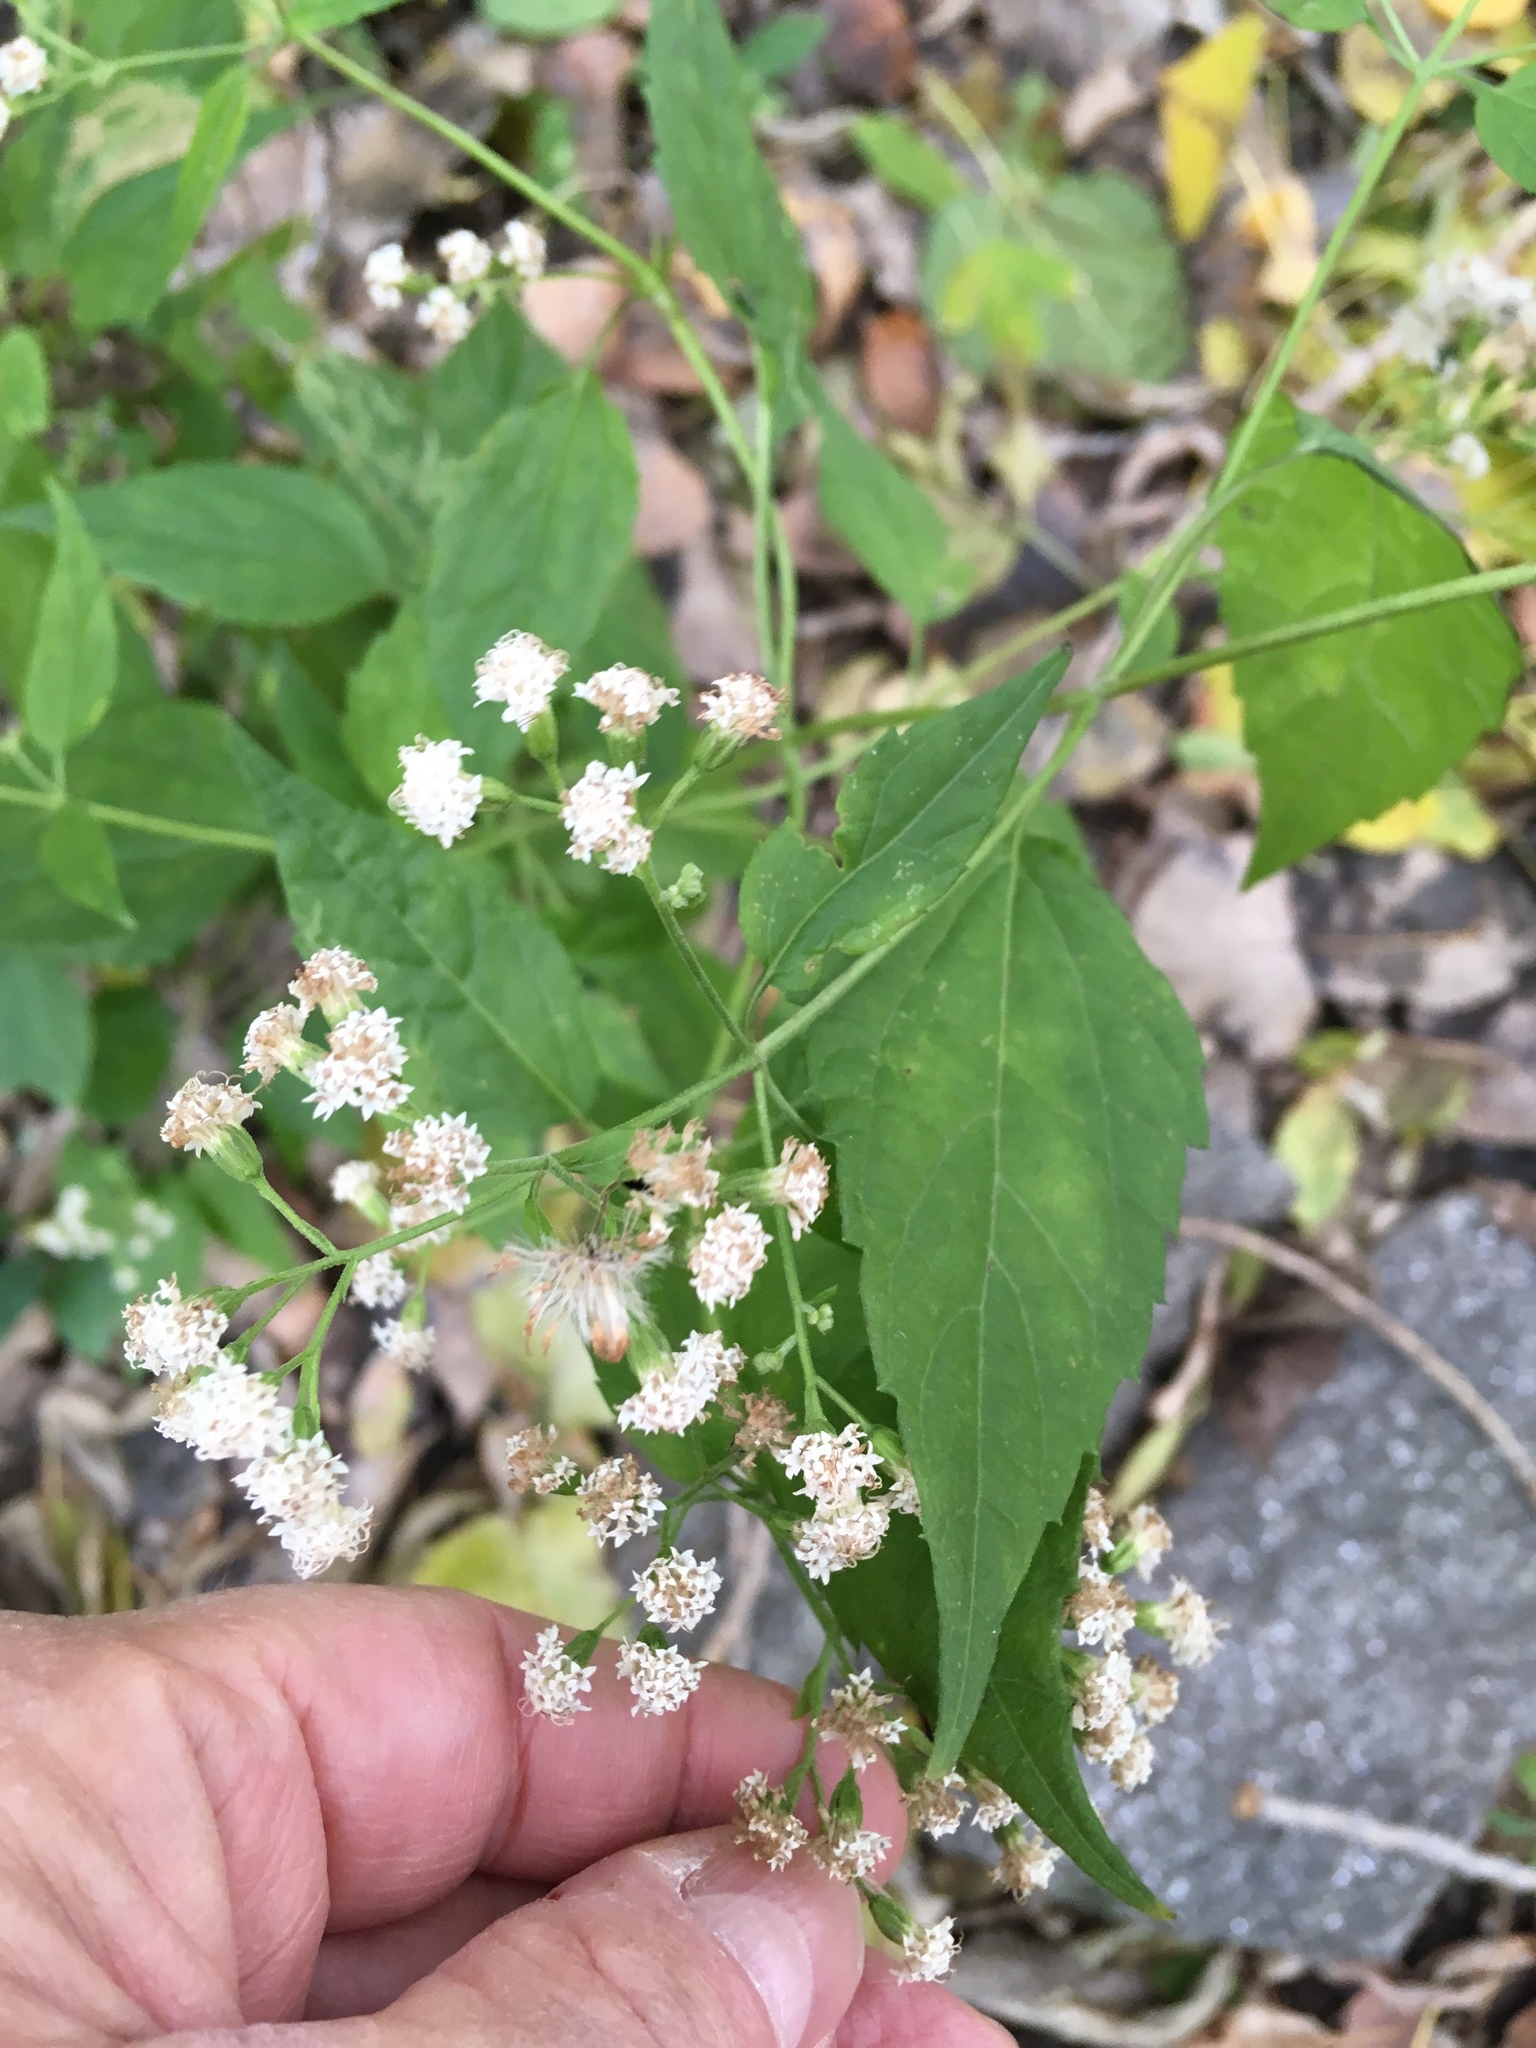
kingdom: Plantae
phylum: Tracheophyta
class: Magnoliopsida
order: Asterales
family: Asteraceae
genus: Ageratina
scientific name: Ageratina altissima
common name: White snakeroot
